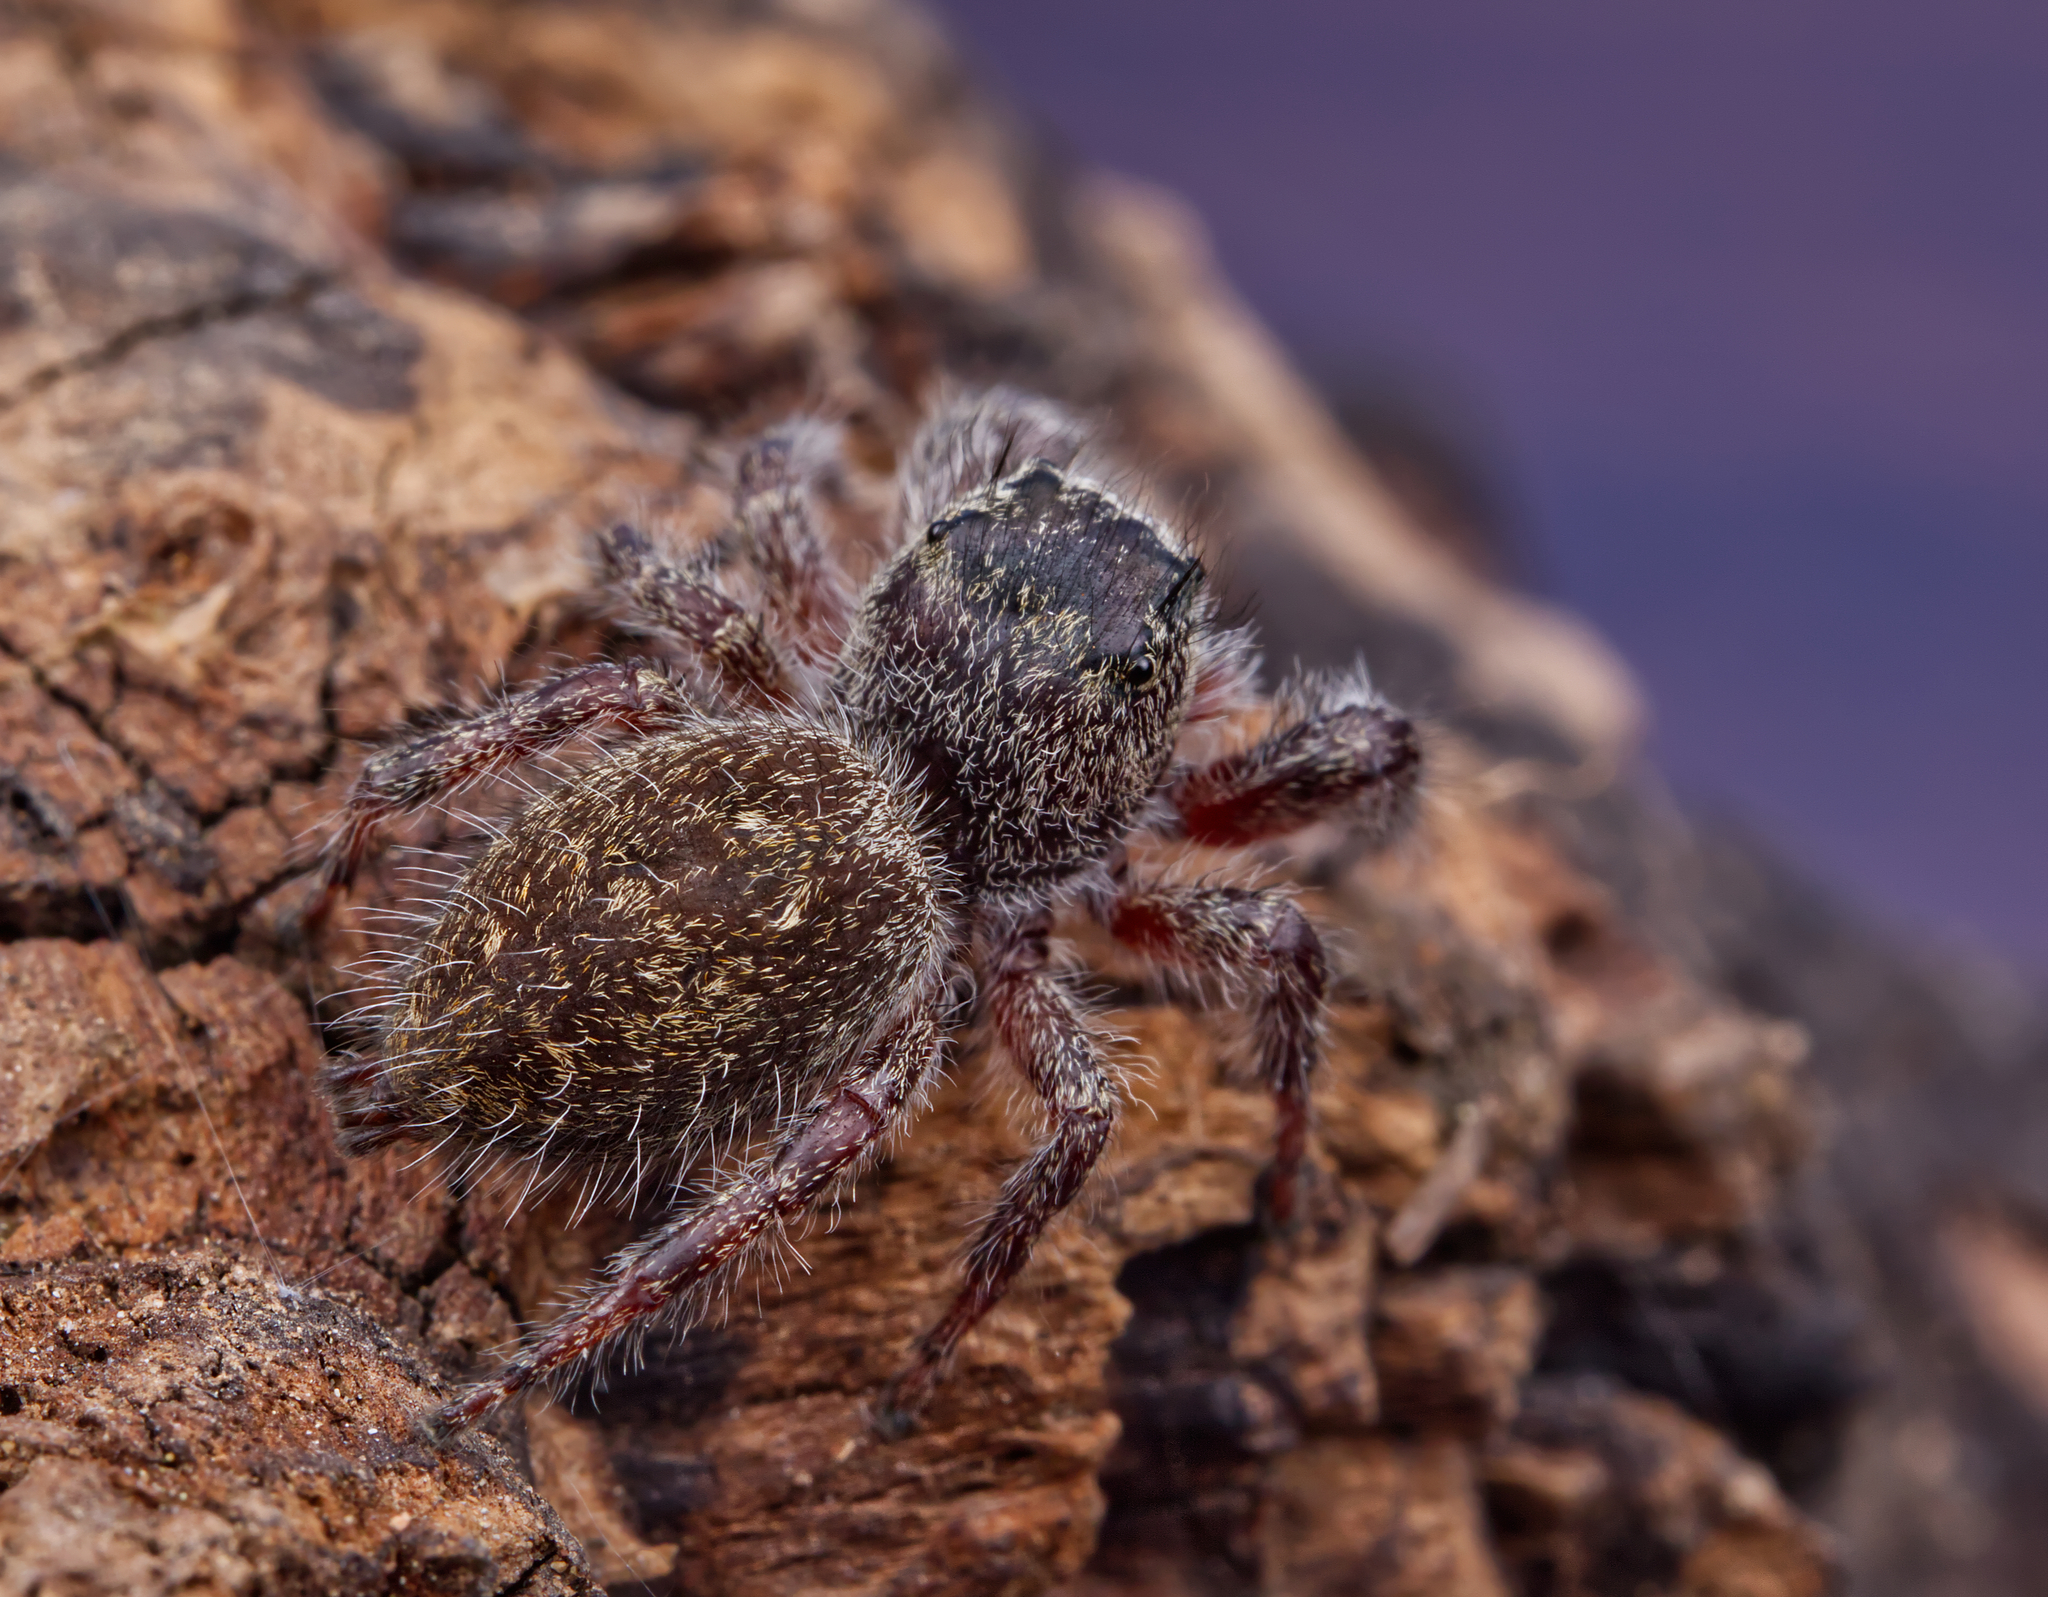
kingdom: Animalia
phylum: Arthropoda
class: Arachnida
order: Araneae
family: Salticidae
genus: Phidippus
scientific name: Phidippus princeps
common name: Grayish jumping spider
